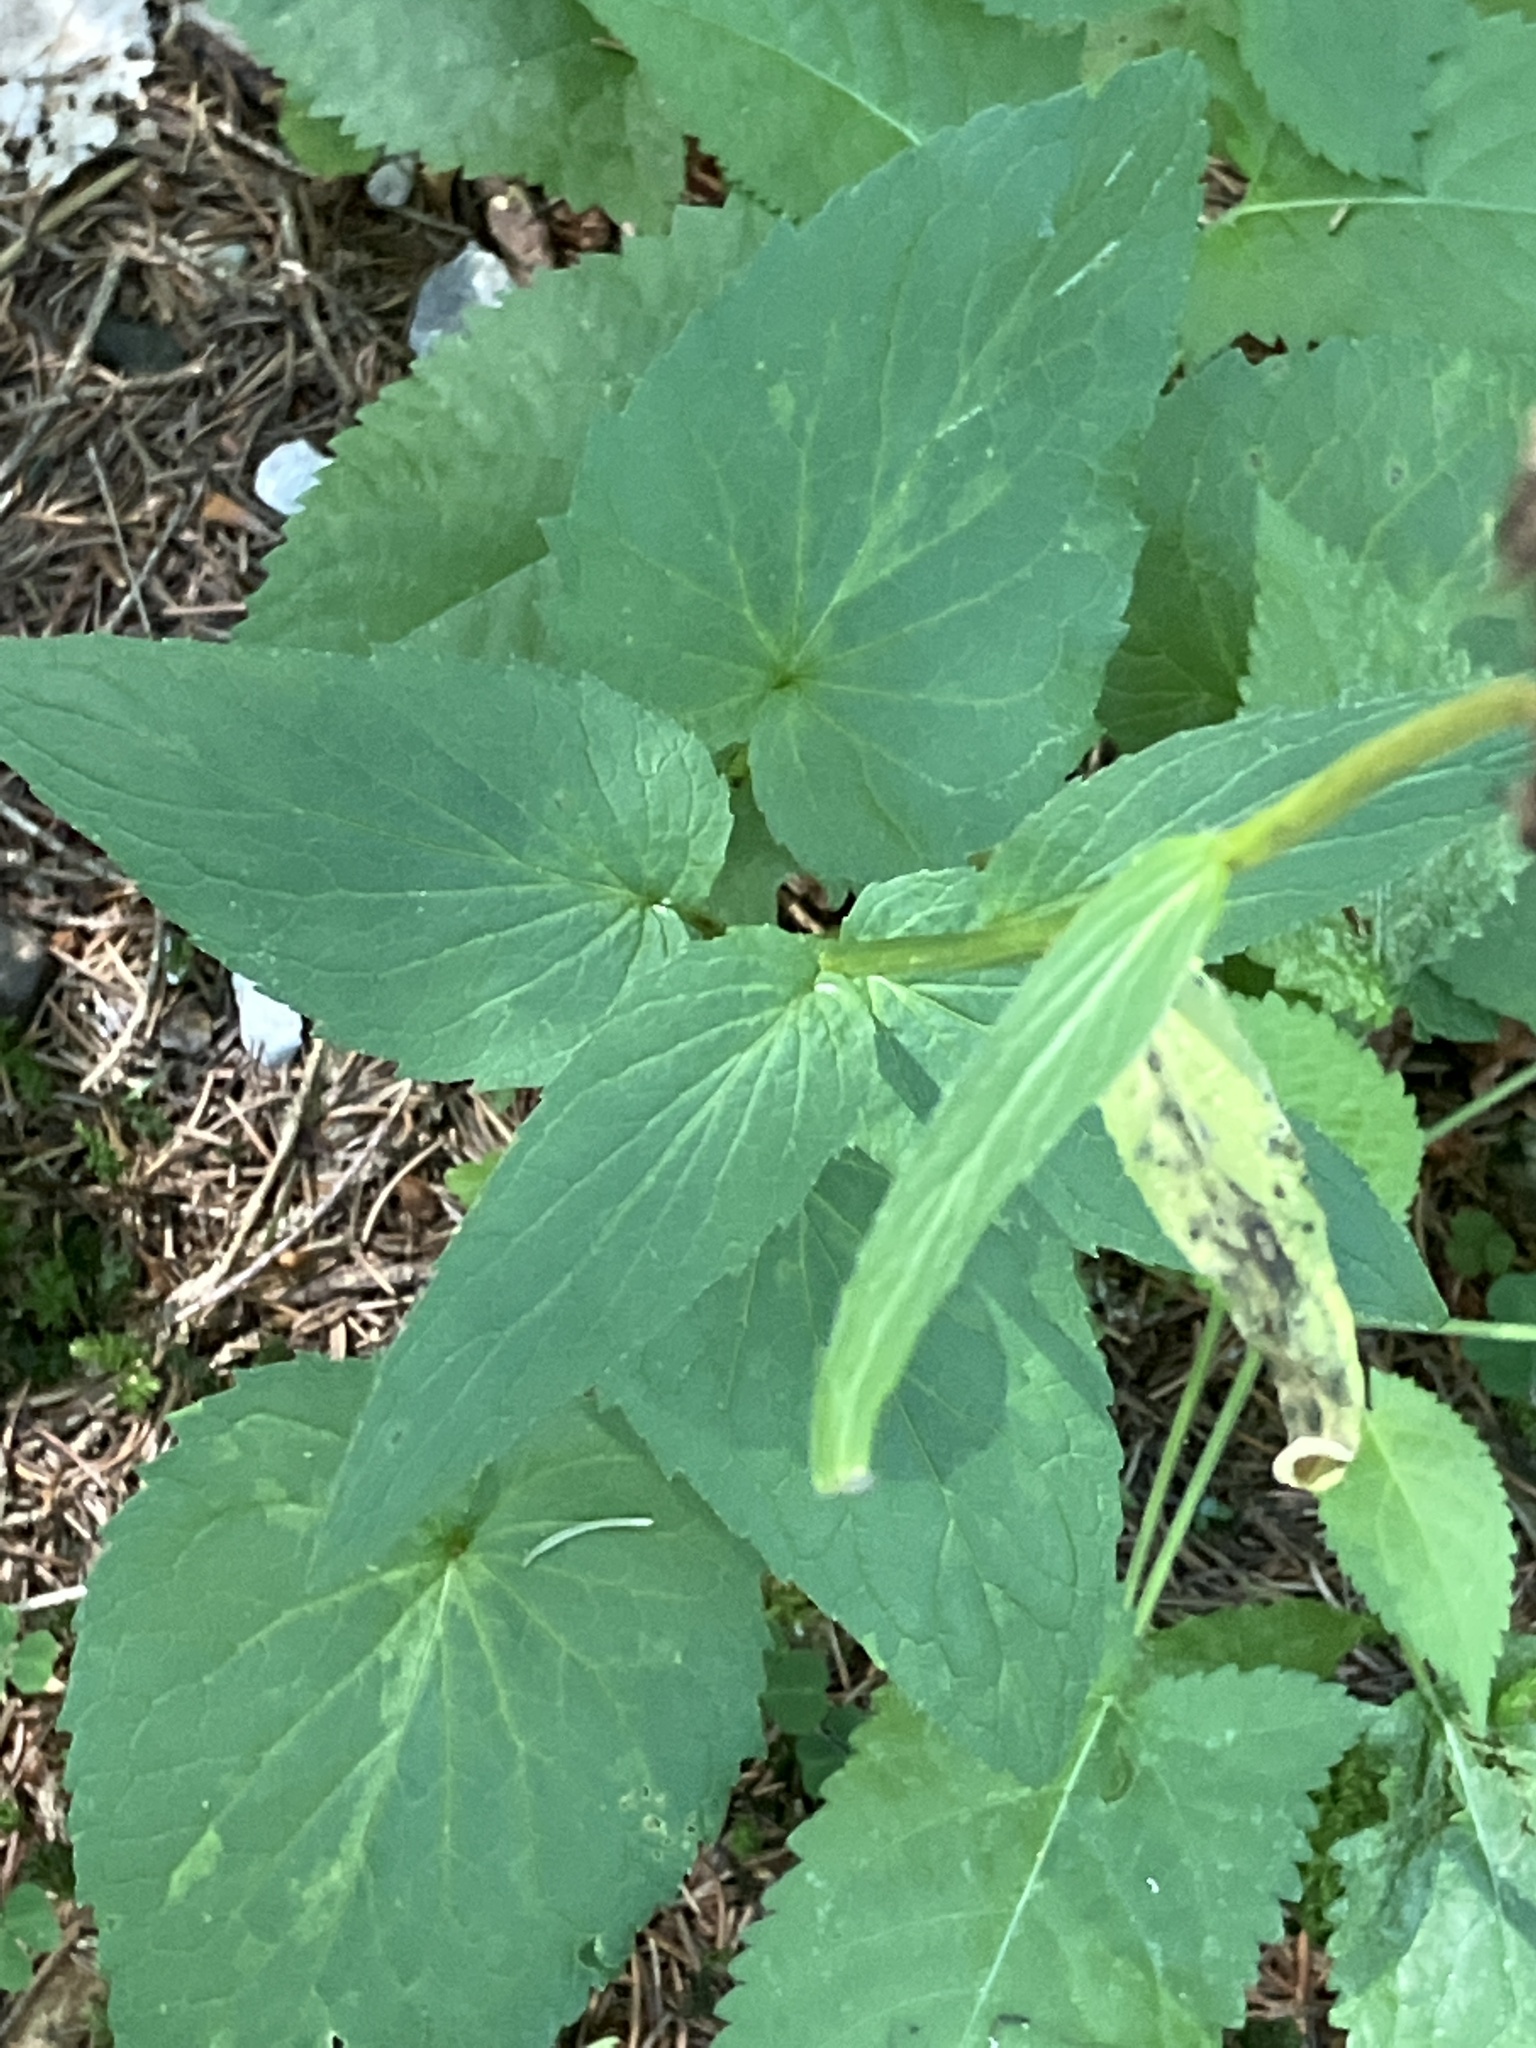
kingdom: Plantae
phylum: Tracheophyta
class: Magnoliopsida
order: Asterales
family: Campanulaceae
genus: Phyteuma
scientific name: Phyteuma spicatum
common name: Spiked rampion
